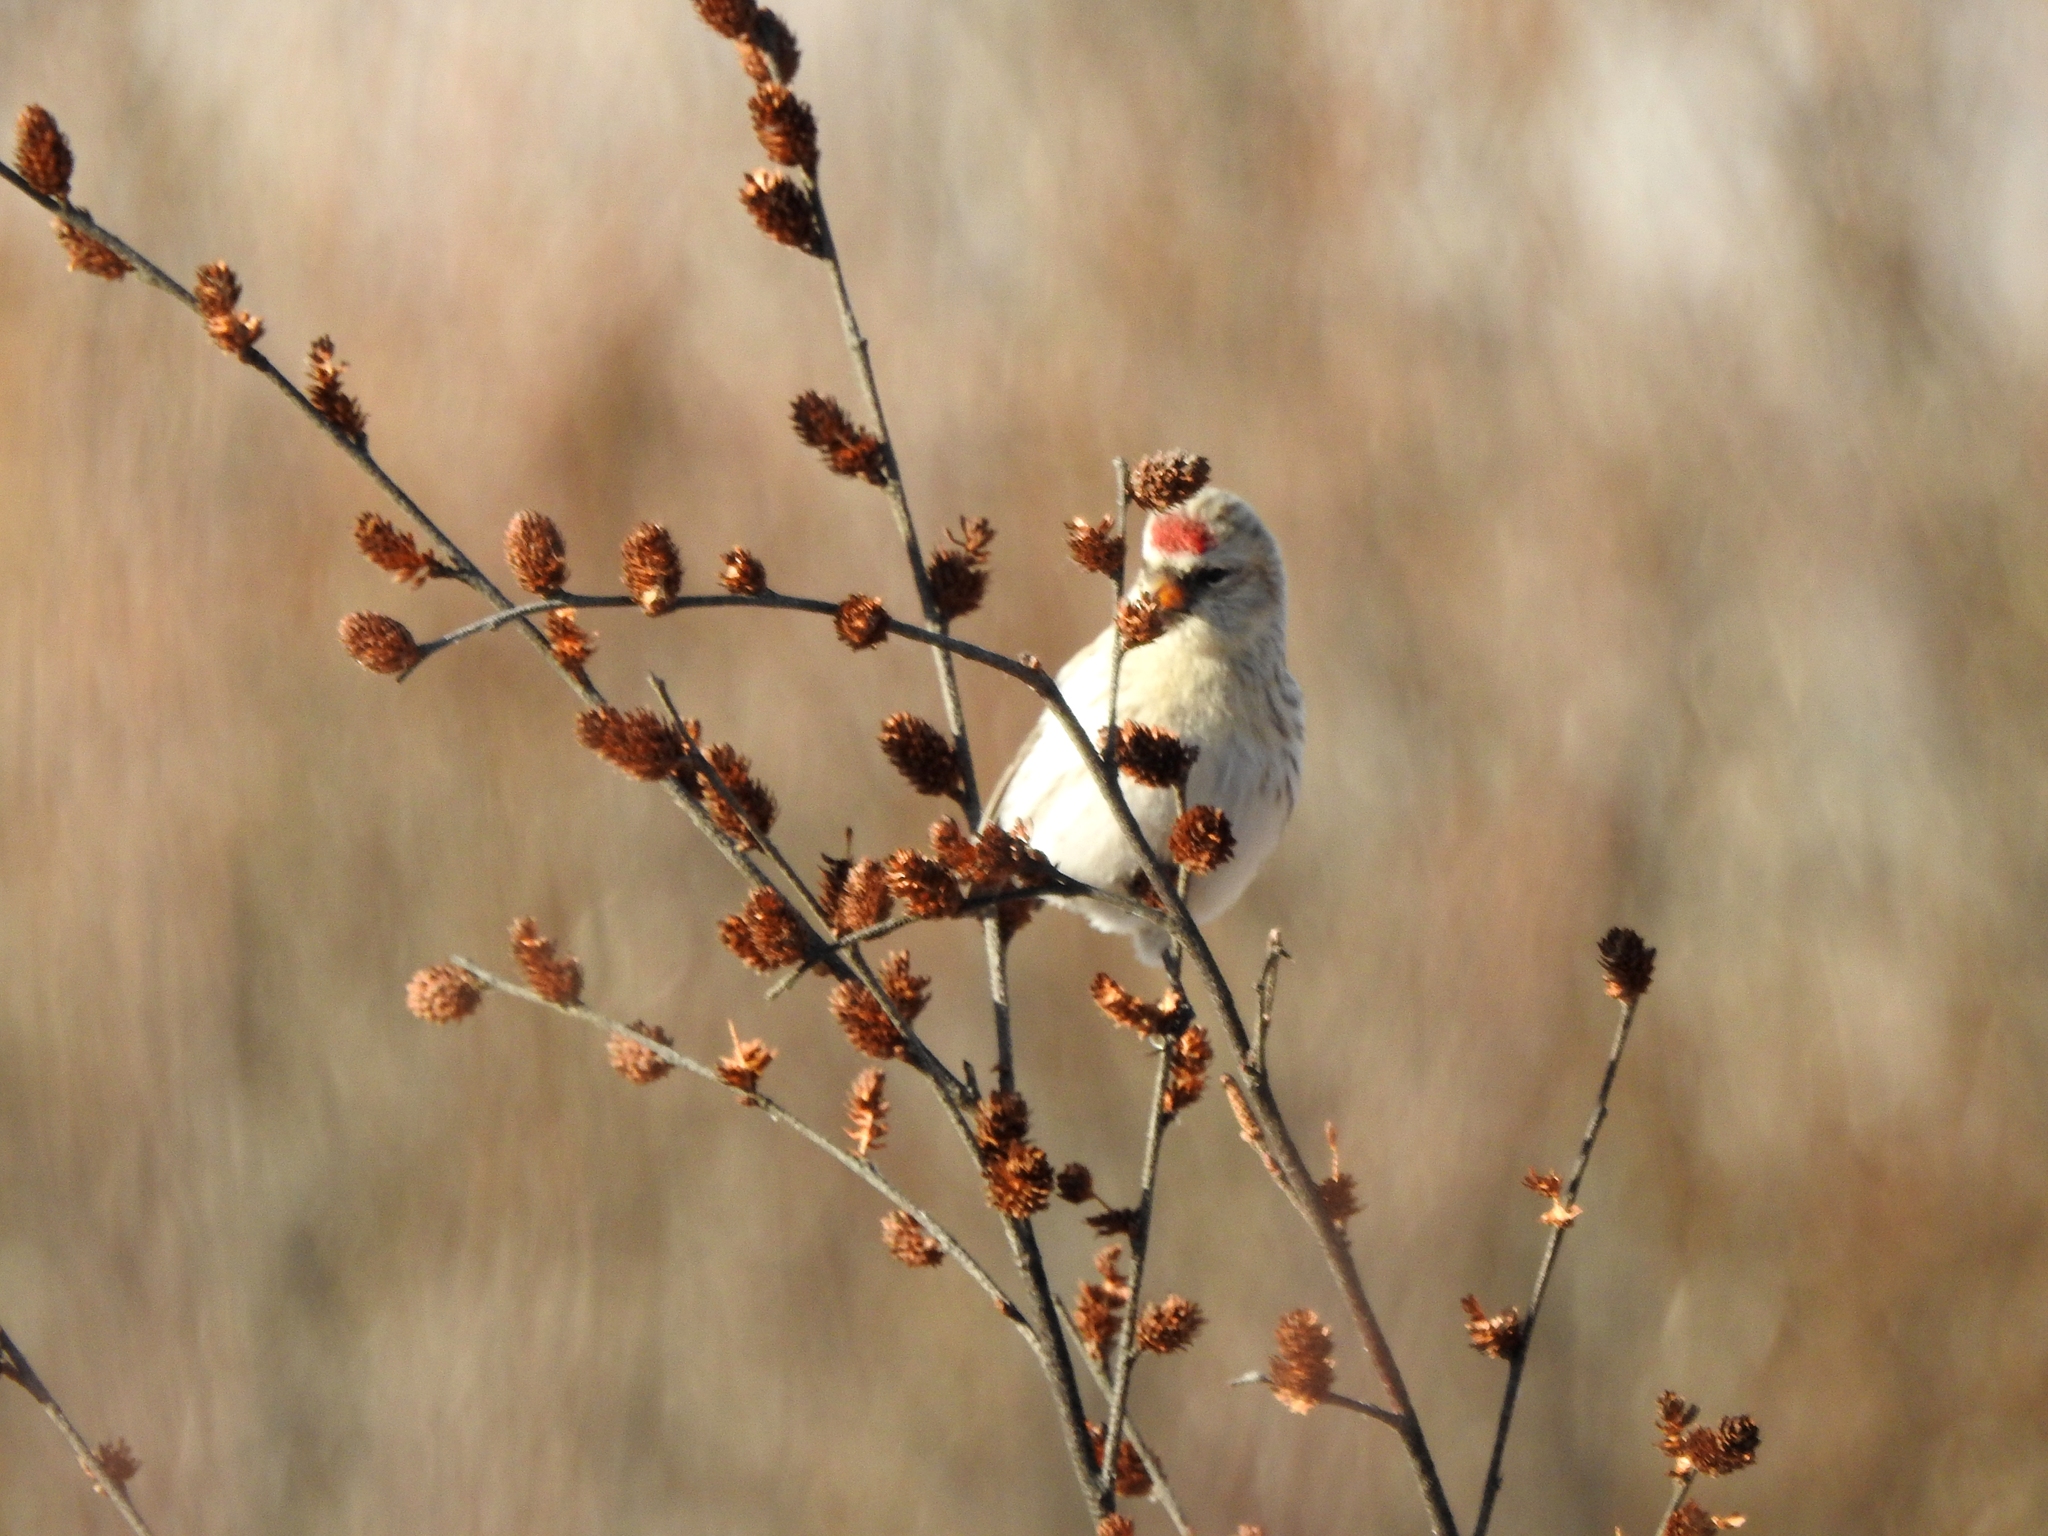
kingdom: Animalia
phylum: Chordata
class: Aves
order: Passeriformes
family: Fringillidae
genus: Acanthis
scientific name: Acanthis flammea
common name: Common redpoll
